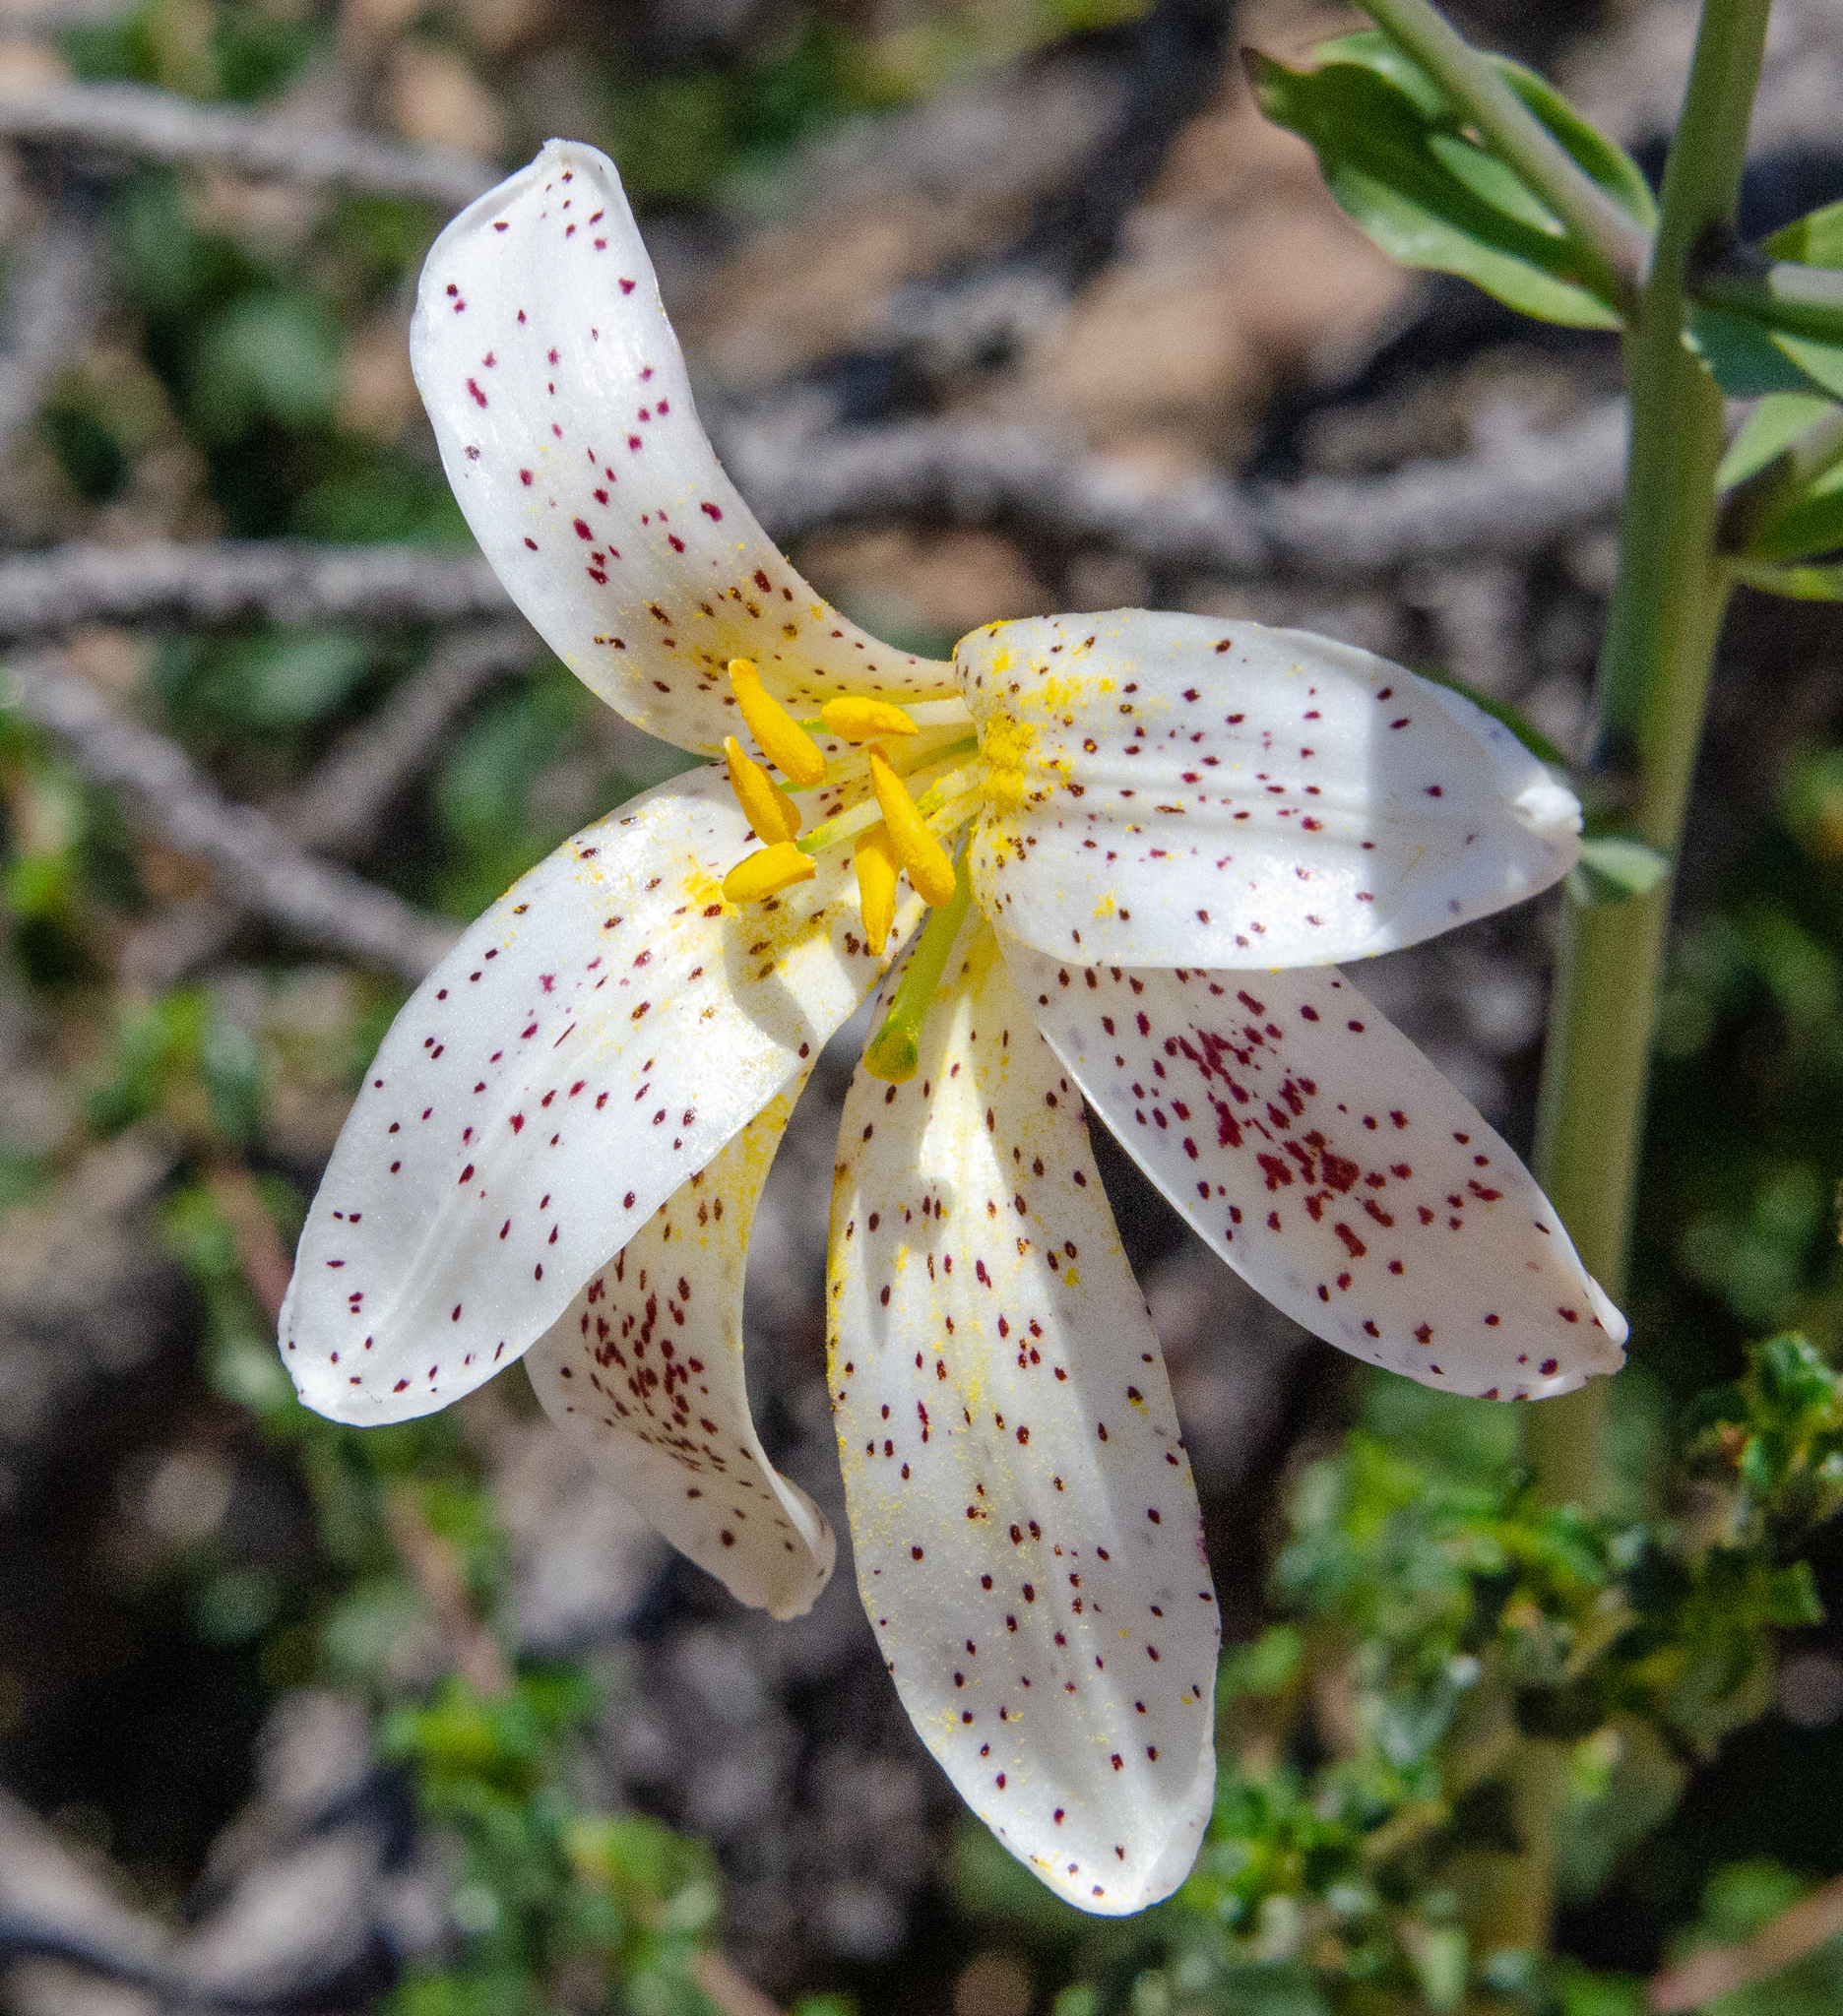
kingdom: Plantae
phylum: Tracheophyta
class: Liliopsida
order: Liliales
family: Liliaceae
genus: Lilium
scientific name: Lilium rubescens
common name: Chamise lily
